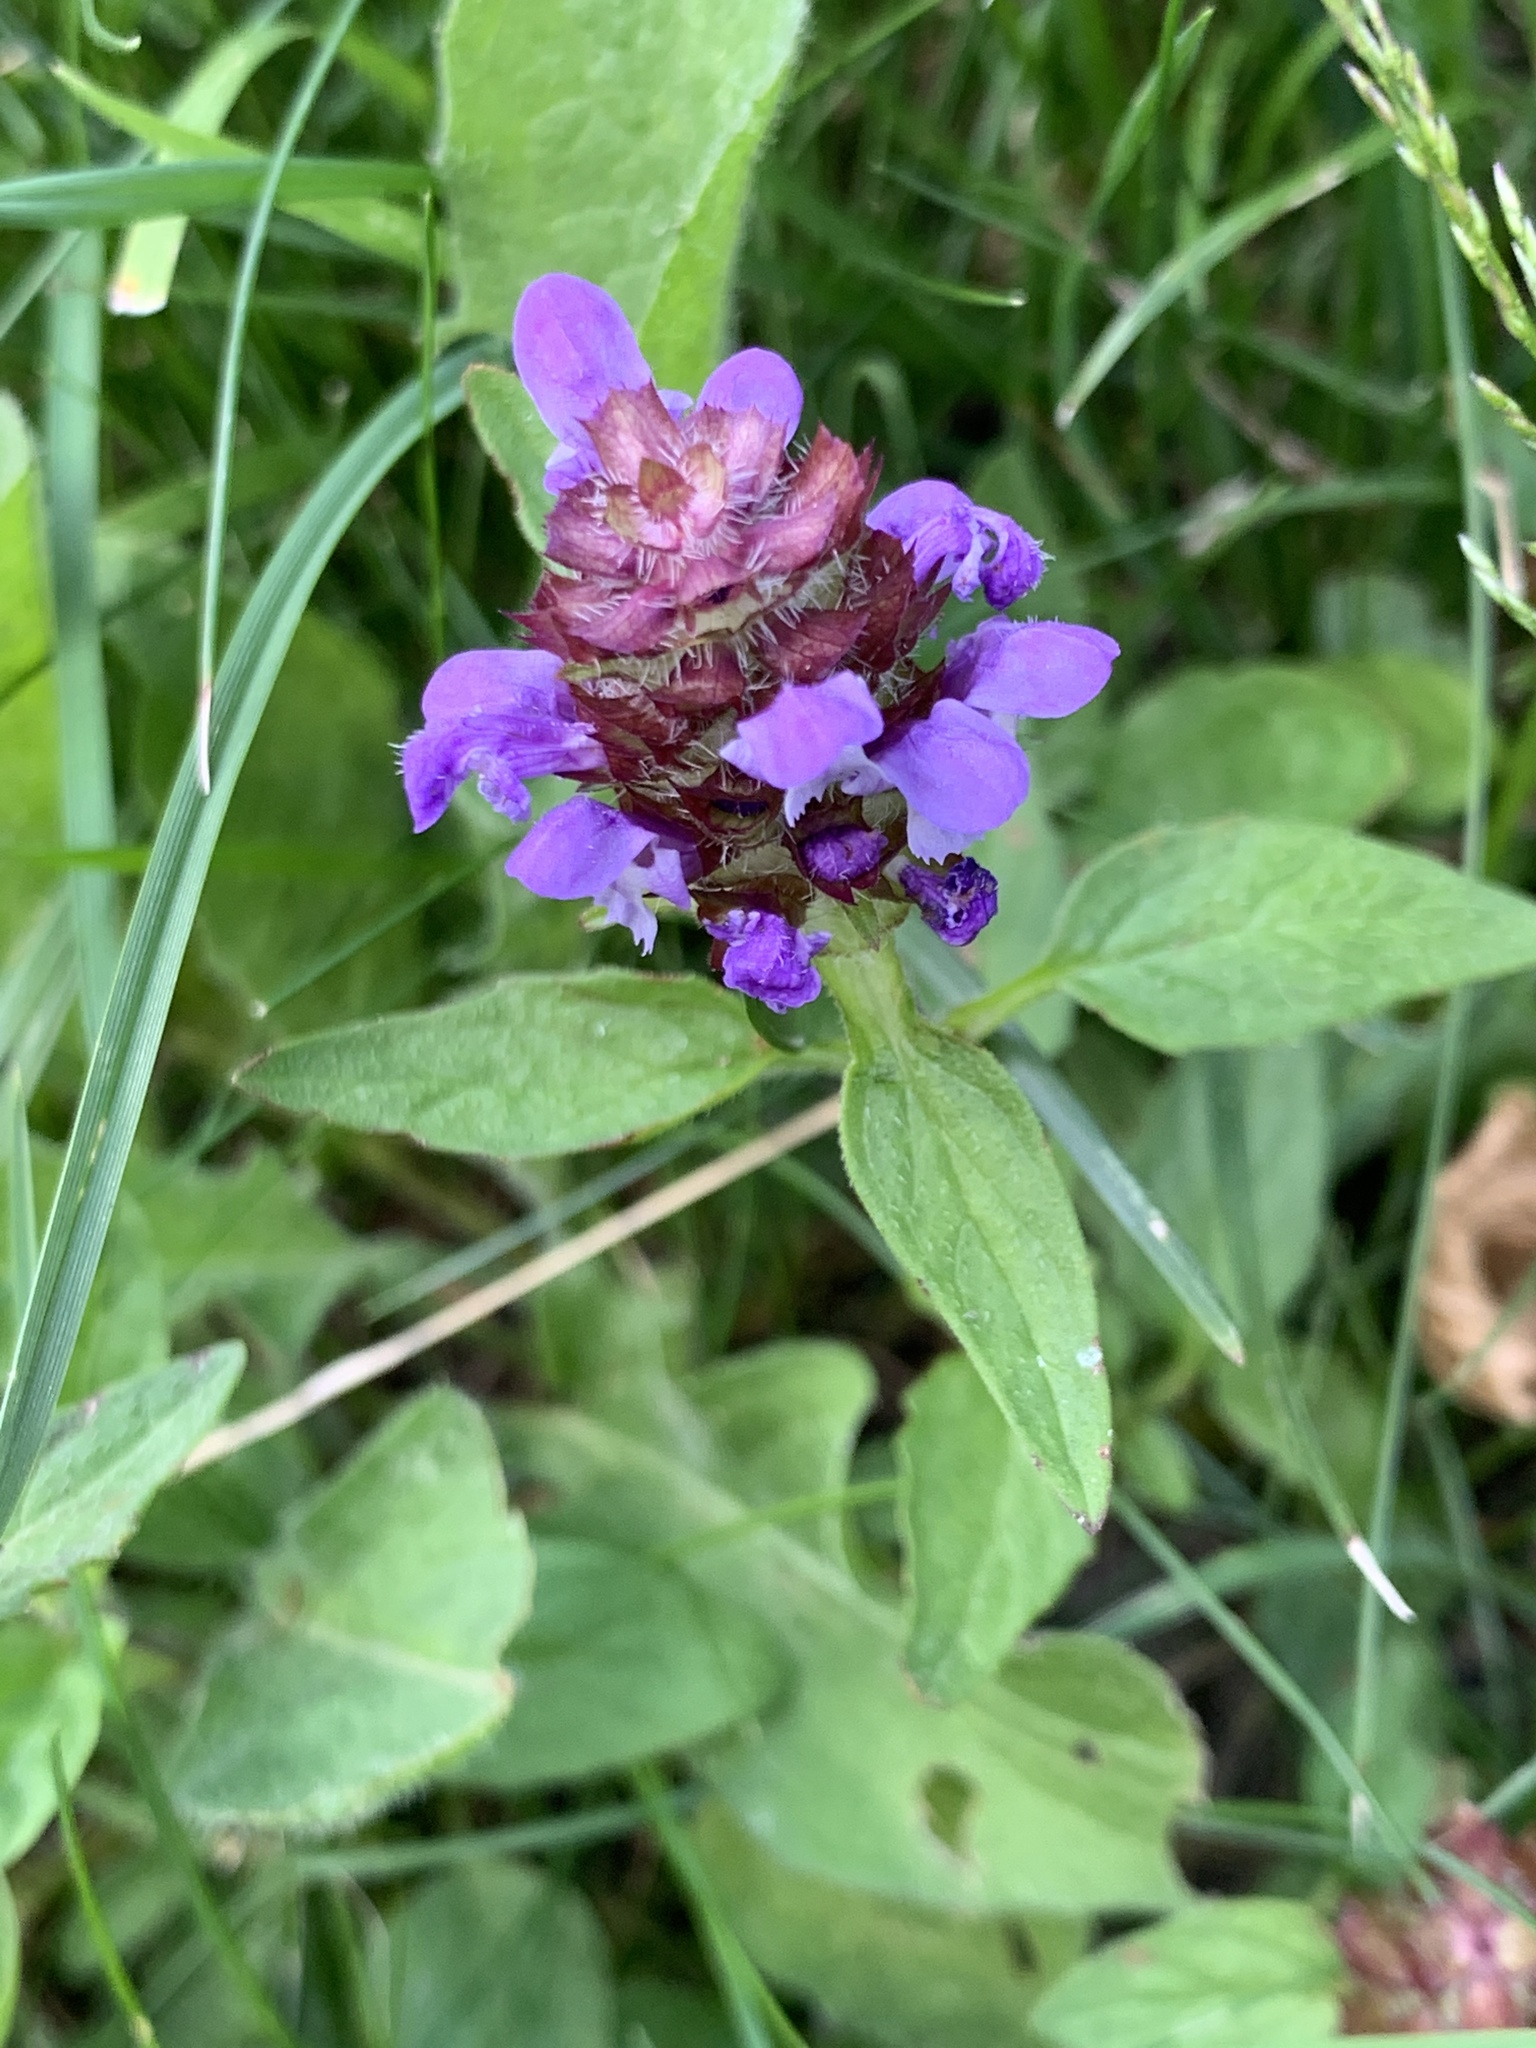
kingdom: Plantae
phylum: Tracheophyta
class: Magnoliopsida
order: Lamiales
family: Lamiaceae
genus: Prunella
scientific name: Prunella vulgaris
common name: Heal-all
